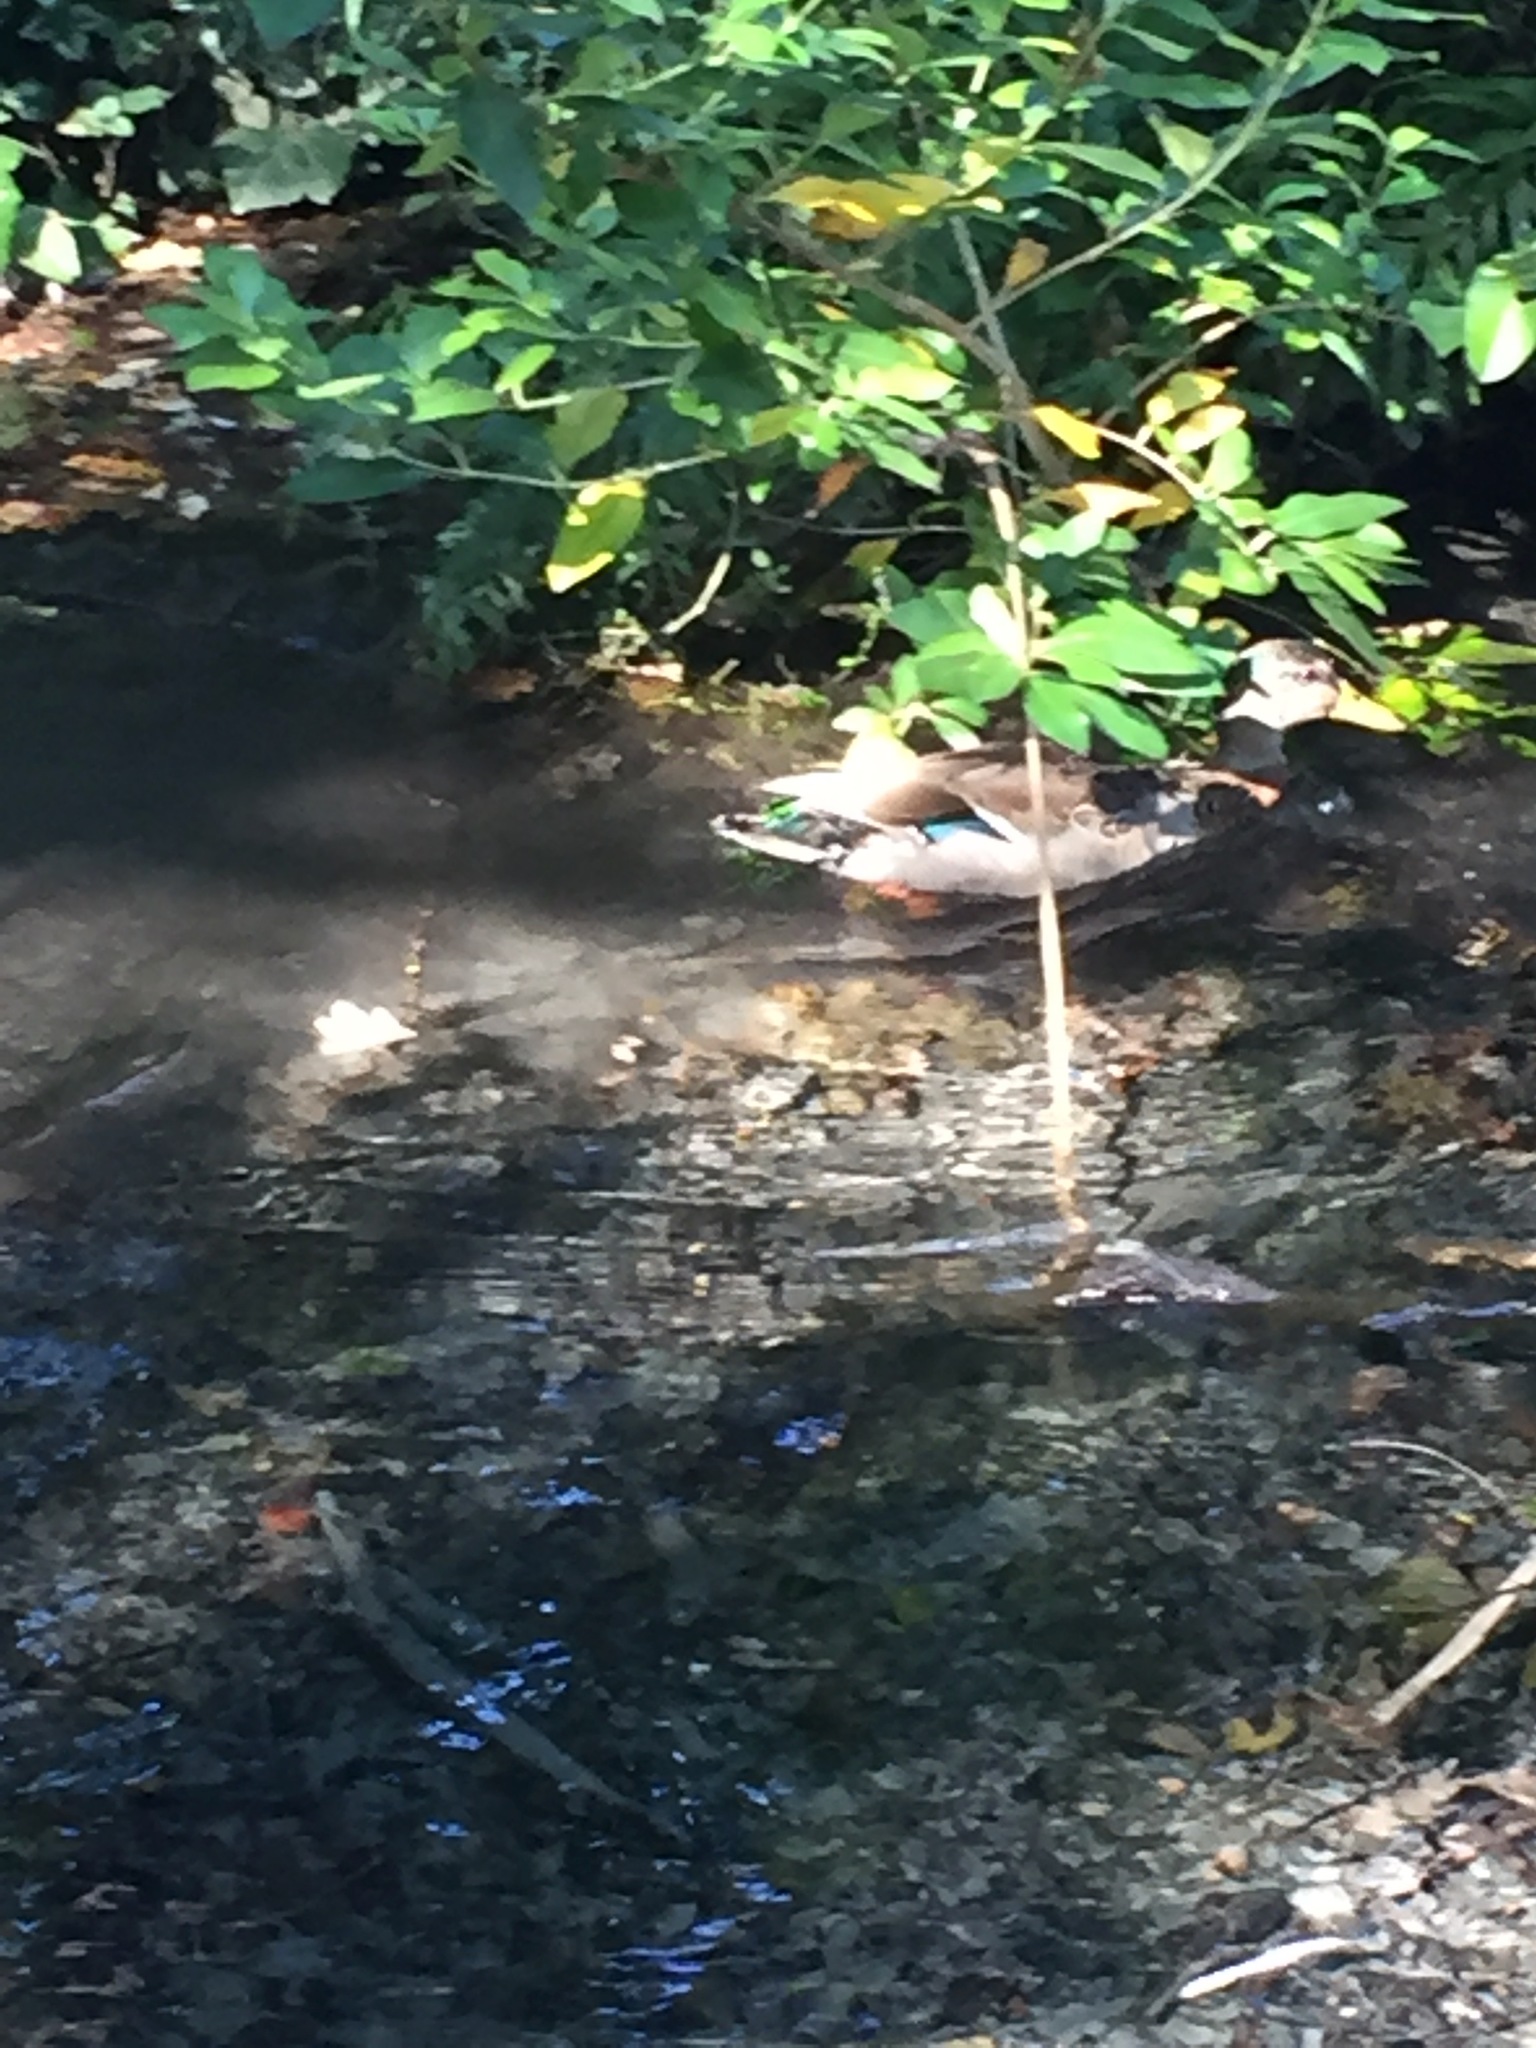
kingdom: Animalia
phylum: Chordata
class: Aves
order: Anseriformes
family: Anatidae
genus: Anas
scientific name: Anas
